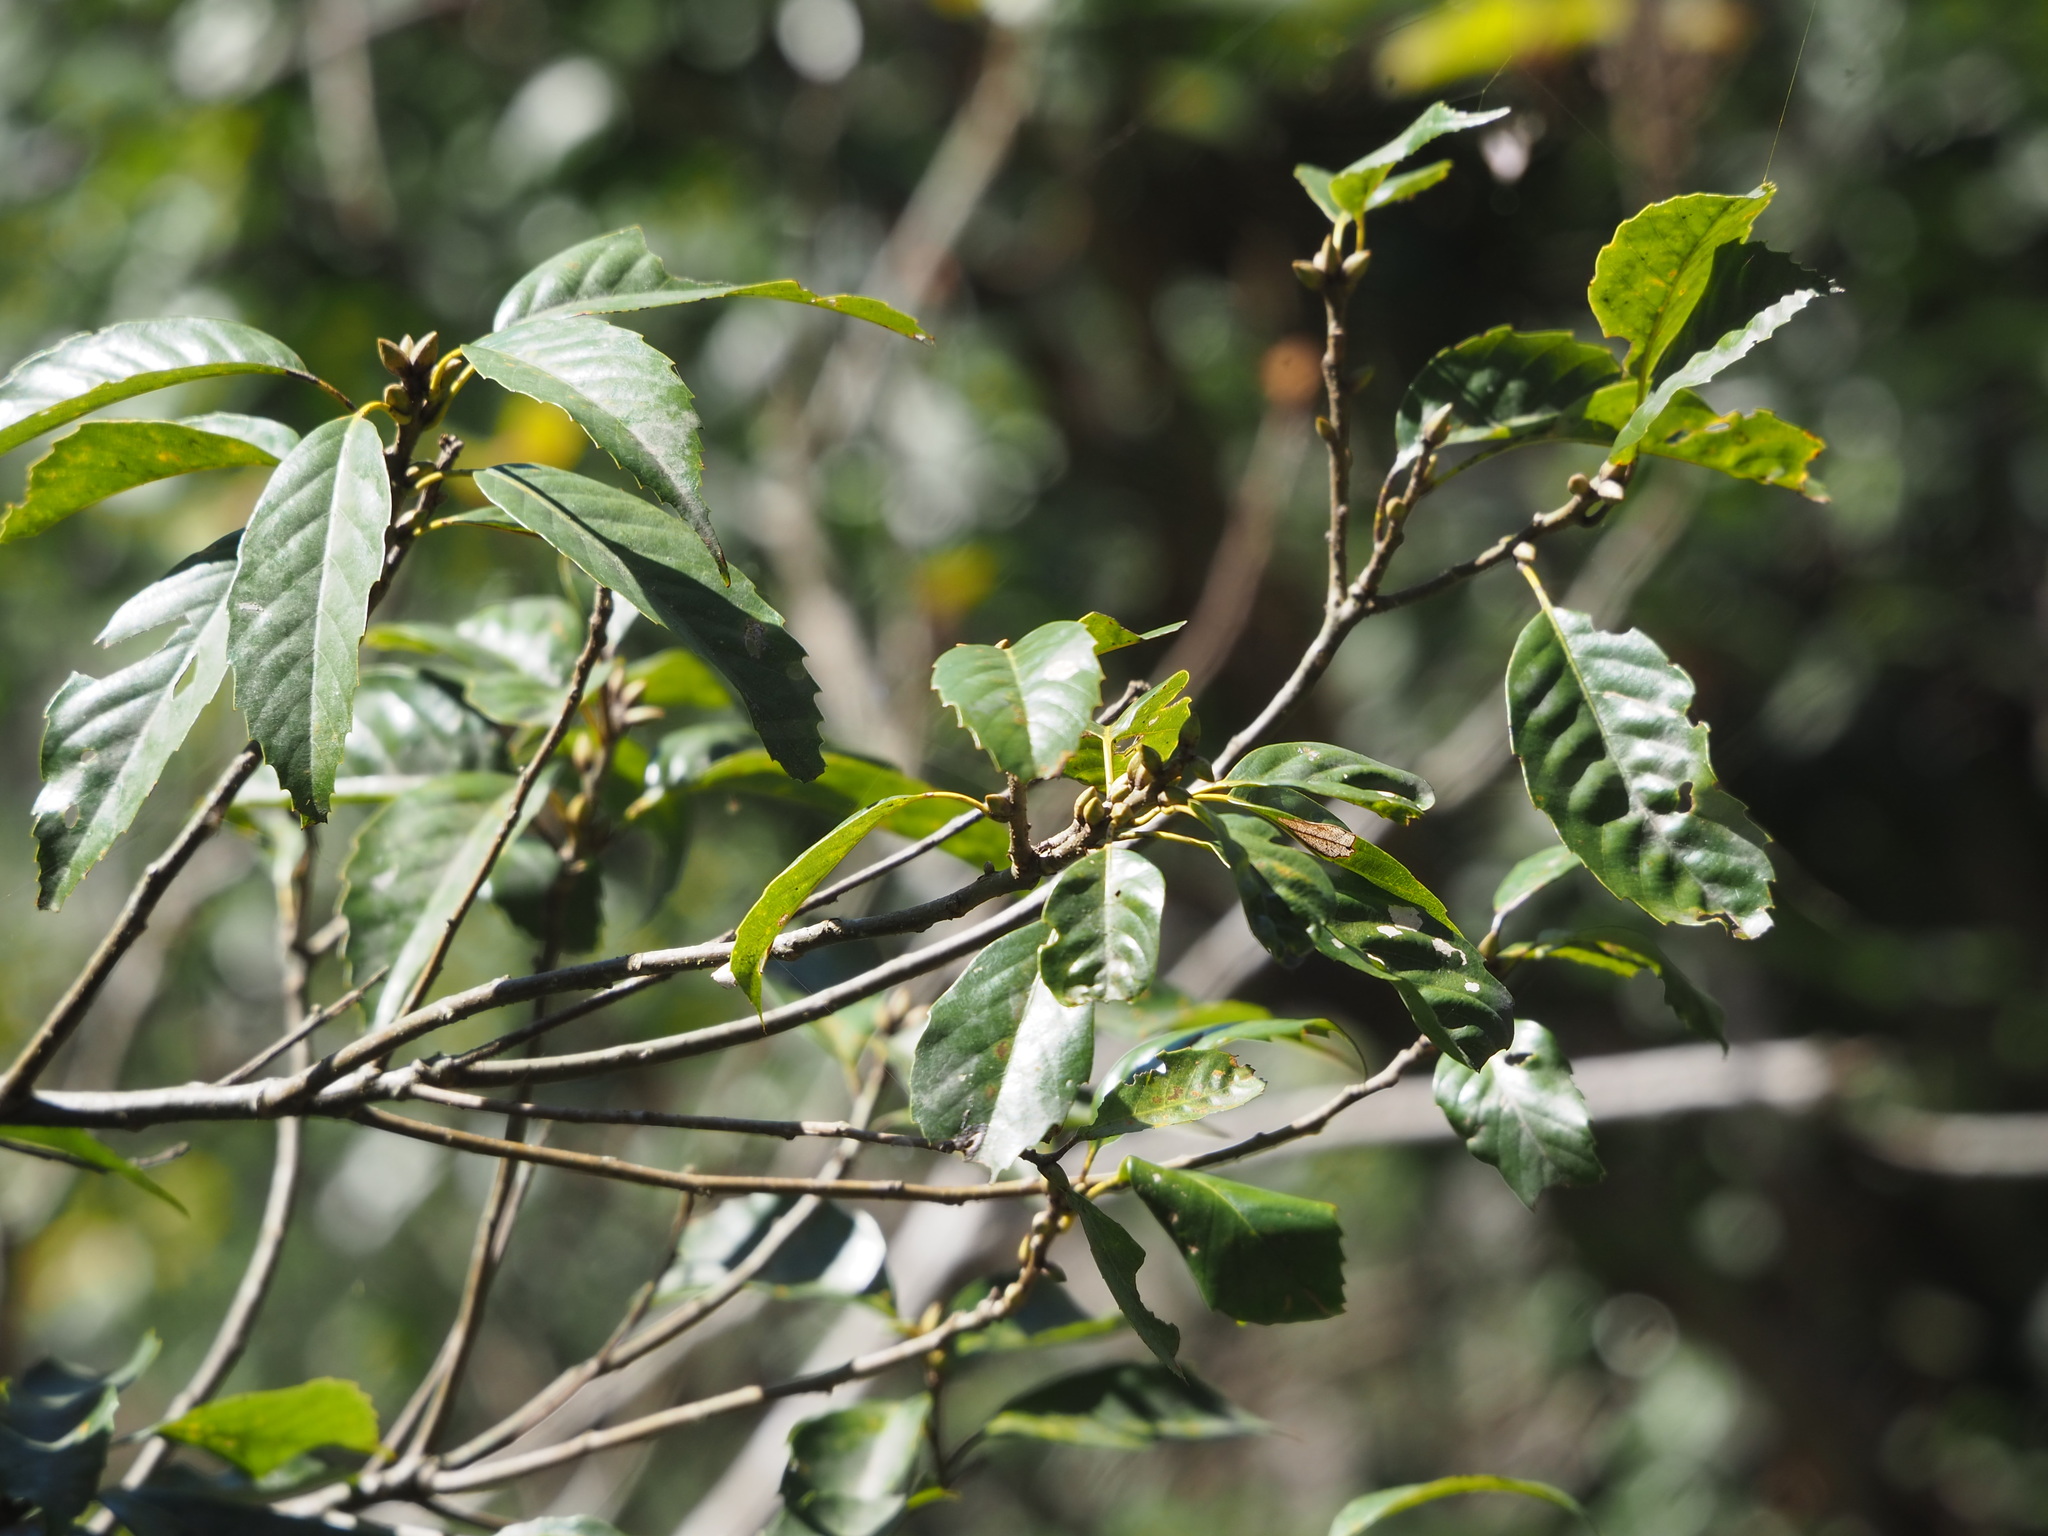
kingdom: Plantae
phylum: Tracheophyta
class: Magnoliopsida
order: Fagales
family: Fagaceae
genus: Quercus
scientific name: Quercus glauca
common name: Ring-cup oak
